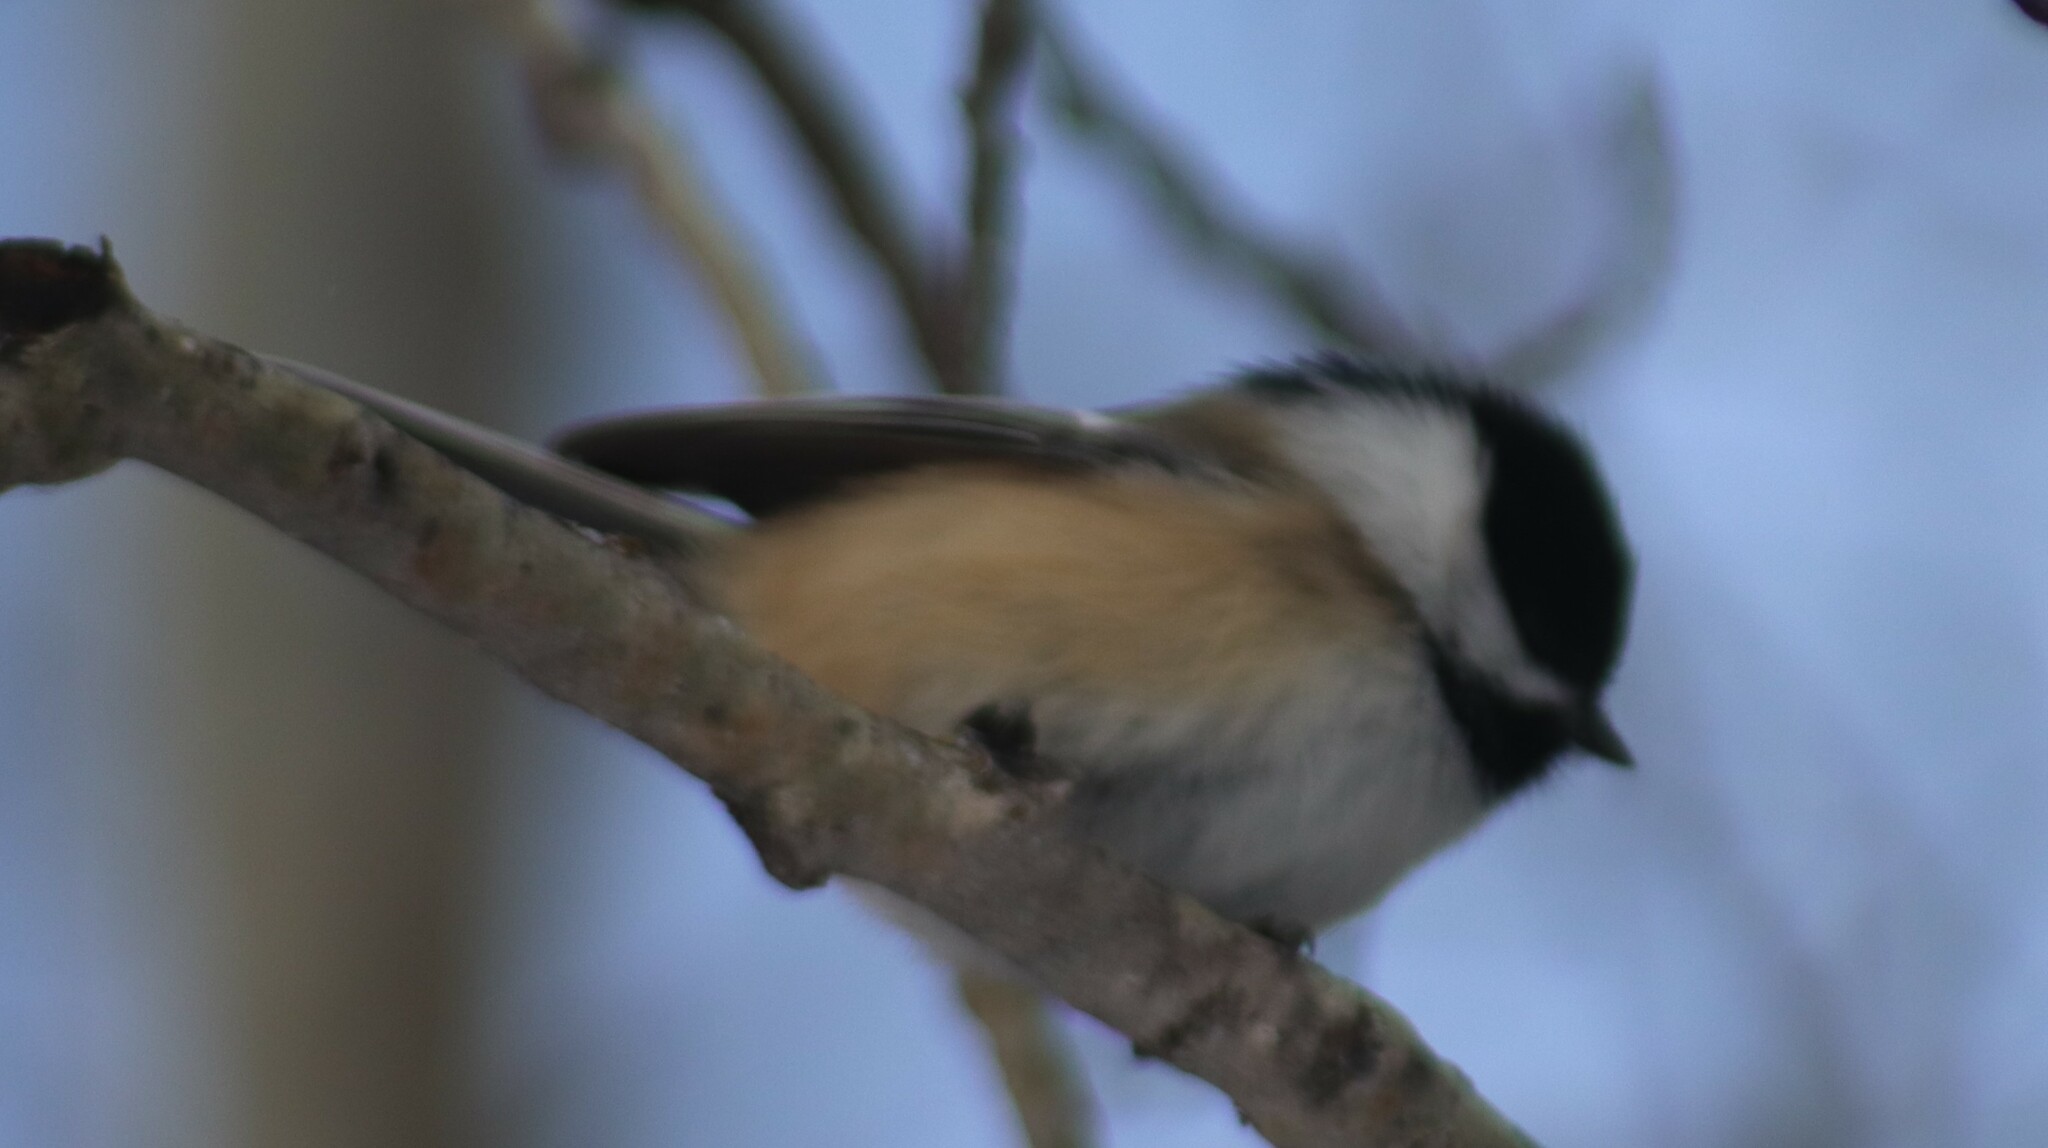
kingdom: Animalia
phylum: Chordata
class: Aves
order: Passeriformes
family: Paridae
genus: Poecile
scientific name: Poecile atricapillus
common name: Black-capped chickadee
